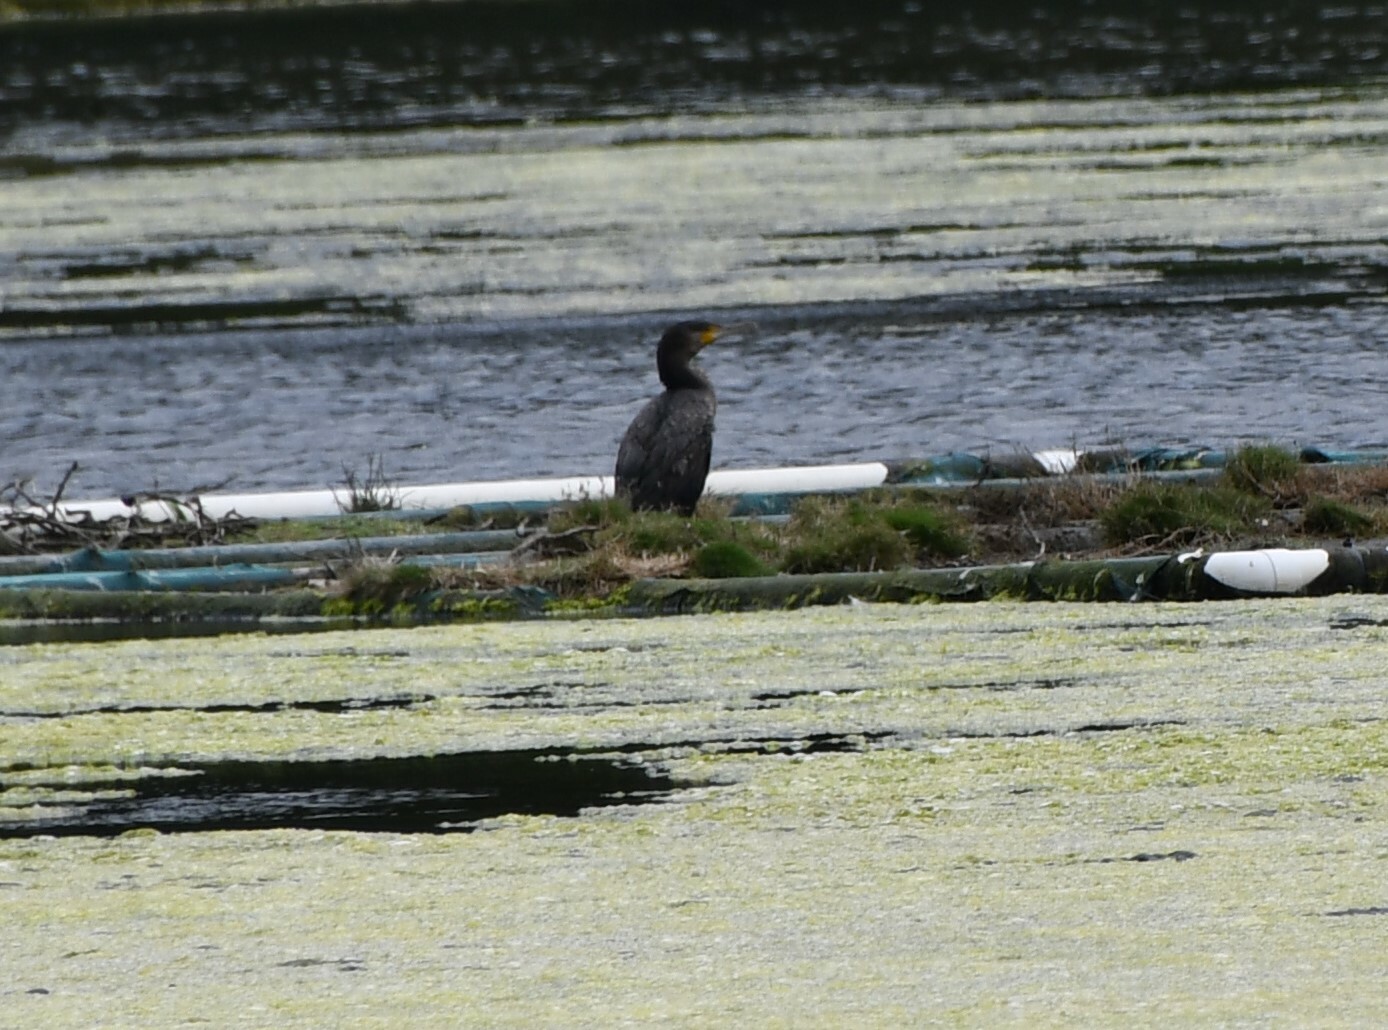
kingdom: Animalia
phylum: Chordata
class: Aves
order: Suliformes
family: Phalacrocoracidae
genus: Phalacrocorax
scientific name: Phalacrocorax carbo
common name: Great cormorant
